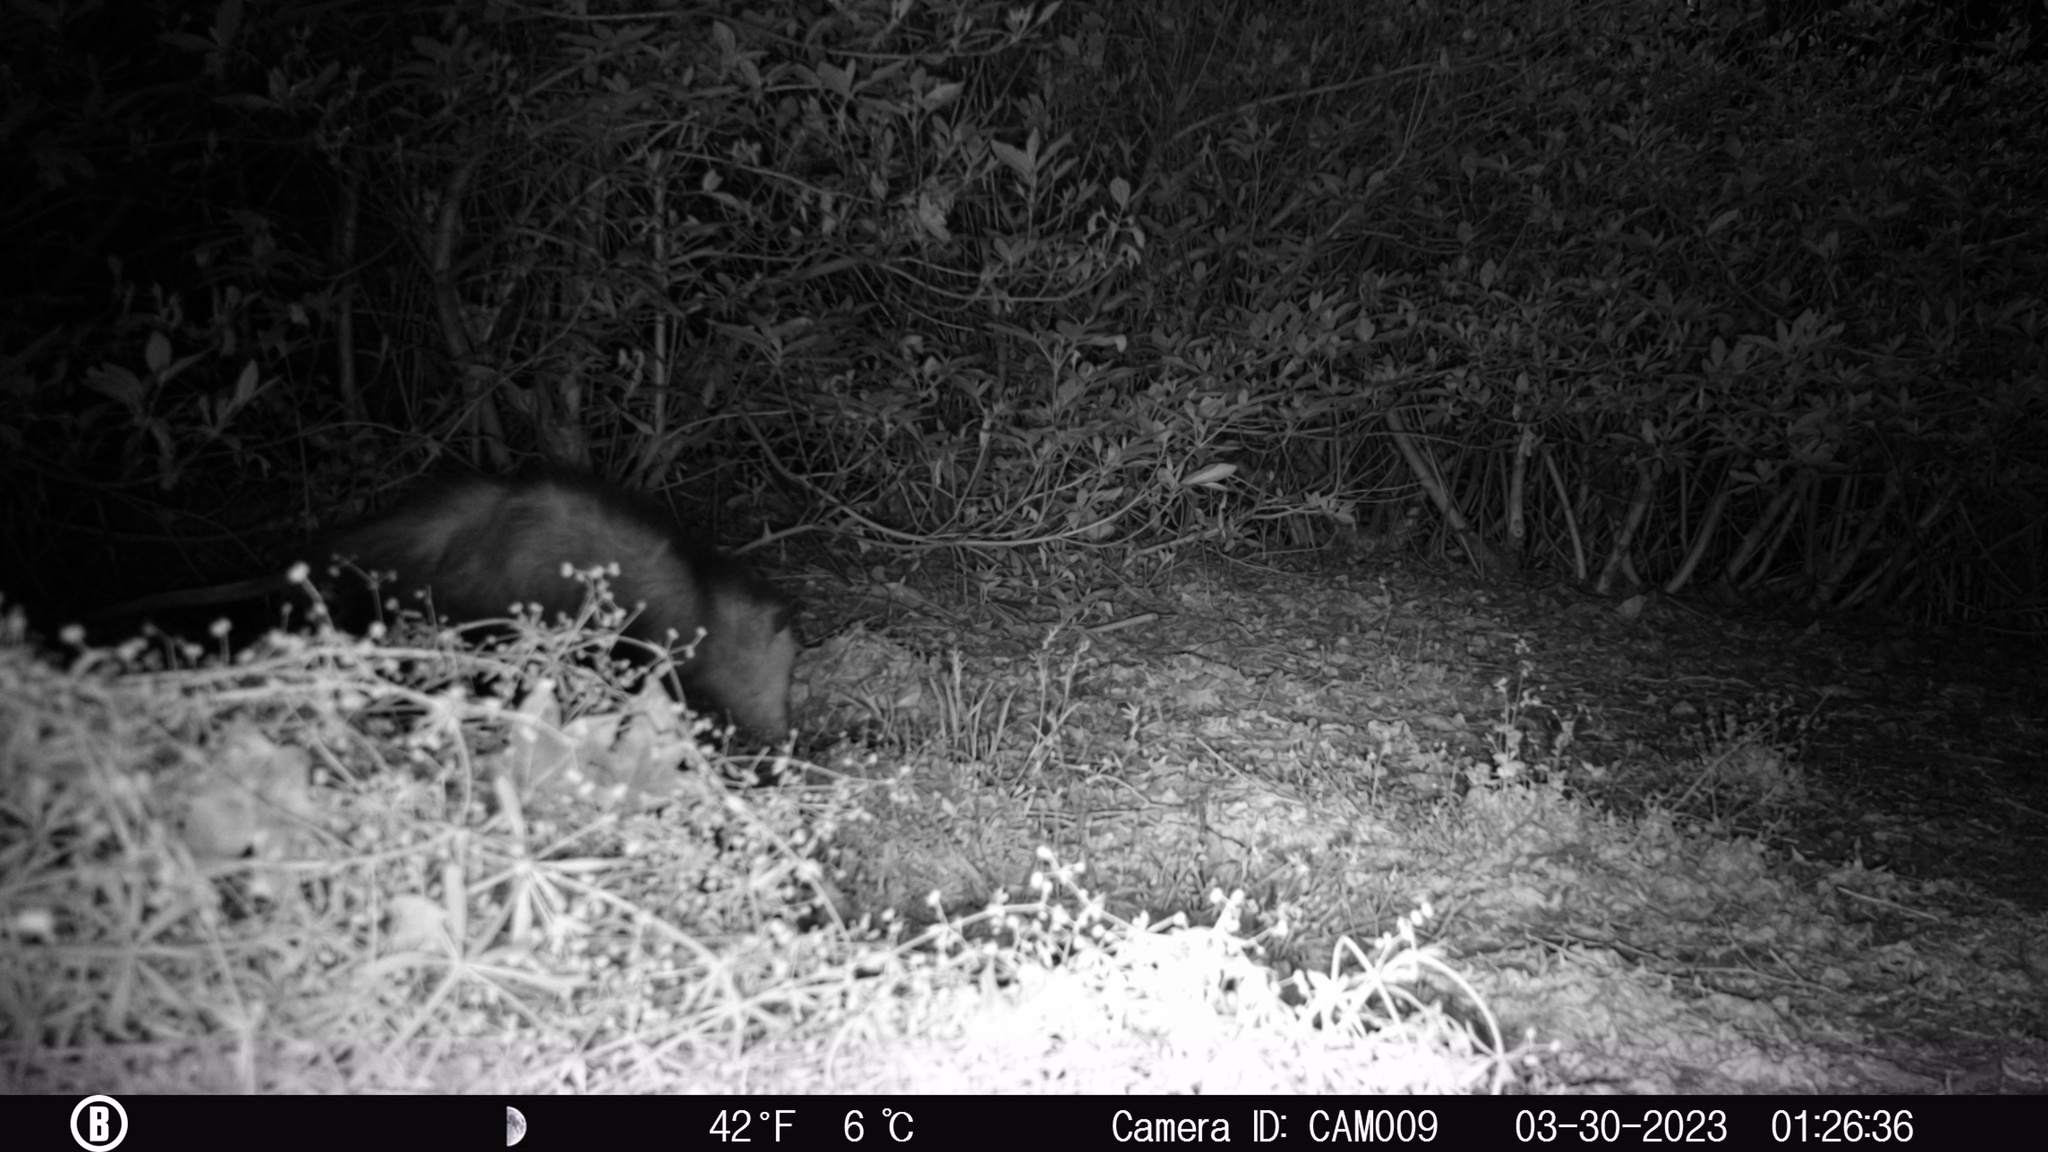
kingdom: Animalia
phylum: Chordata
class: Mammalia
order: Didelphimorphia
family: Didelphidae
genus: Didelphis
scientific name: Didelphis virginiana
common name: Virginia opossum
